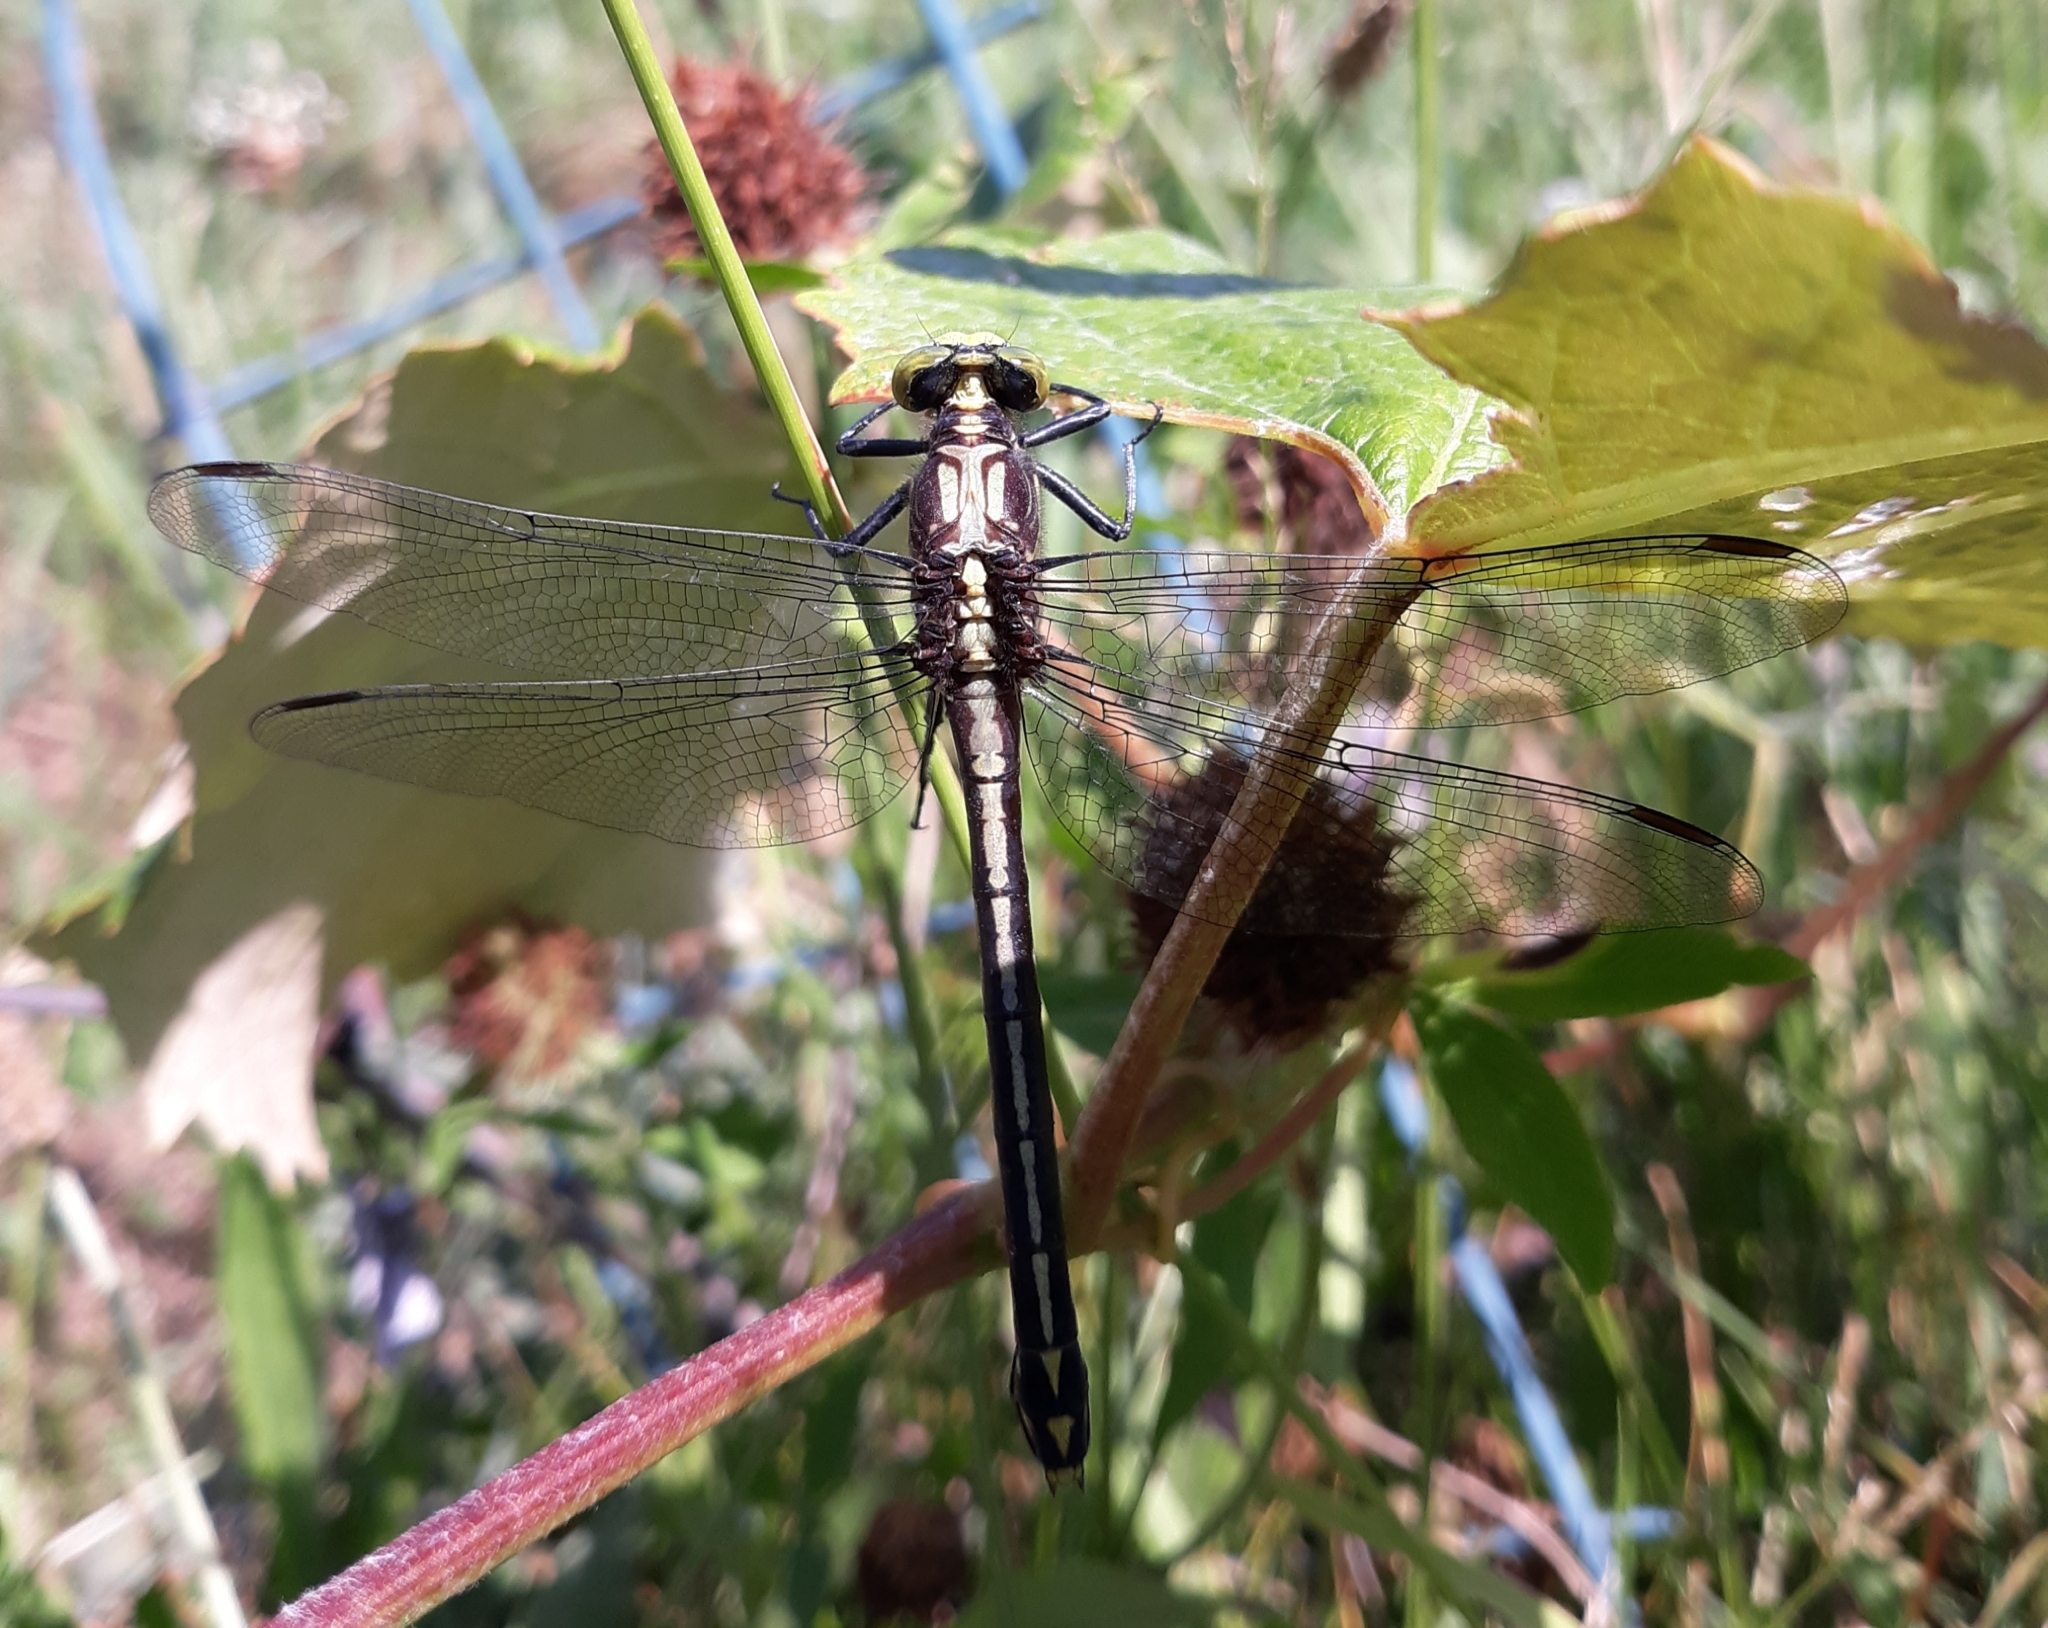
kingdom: Animalia
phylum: Arthropoda
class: Insecta
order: Odonata
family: Gomphidae
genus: Dromogomphus
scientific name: Dromogomphus spinosus
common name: Black-shouldered spinyleg
